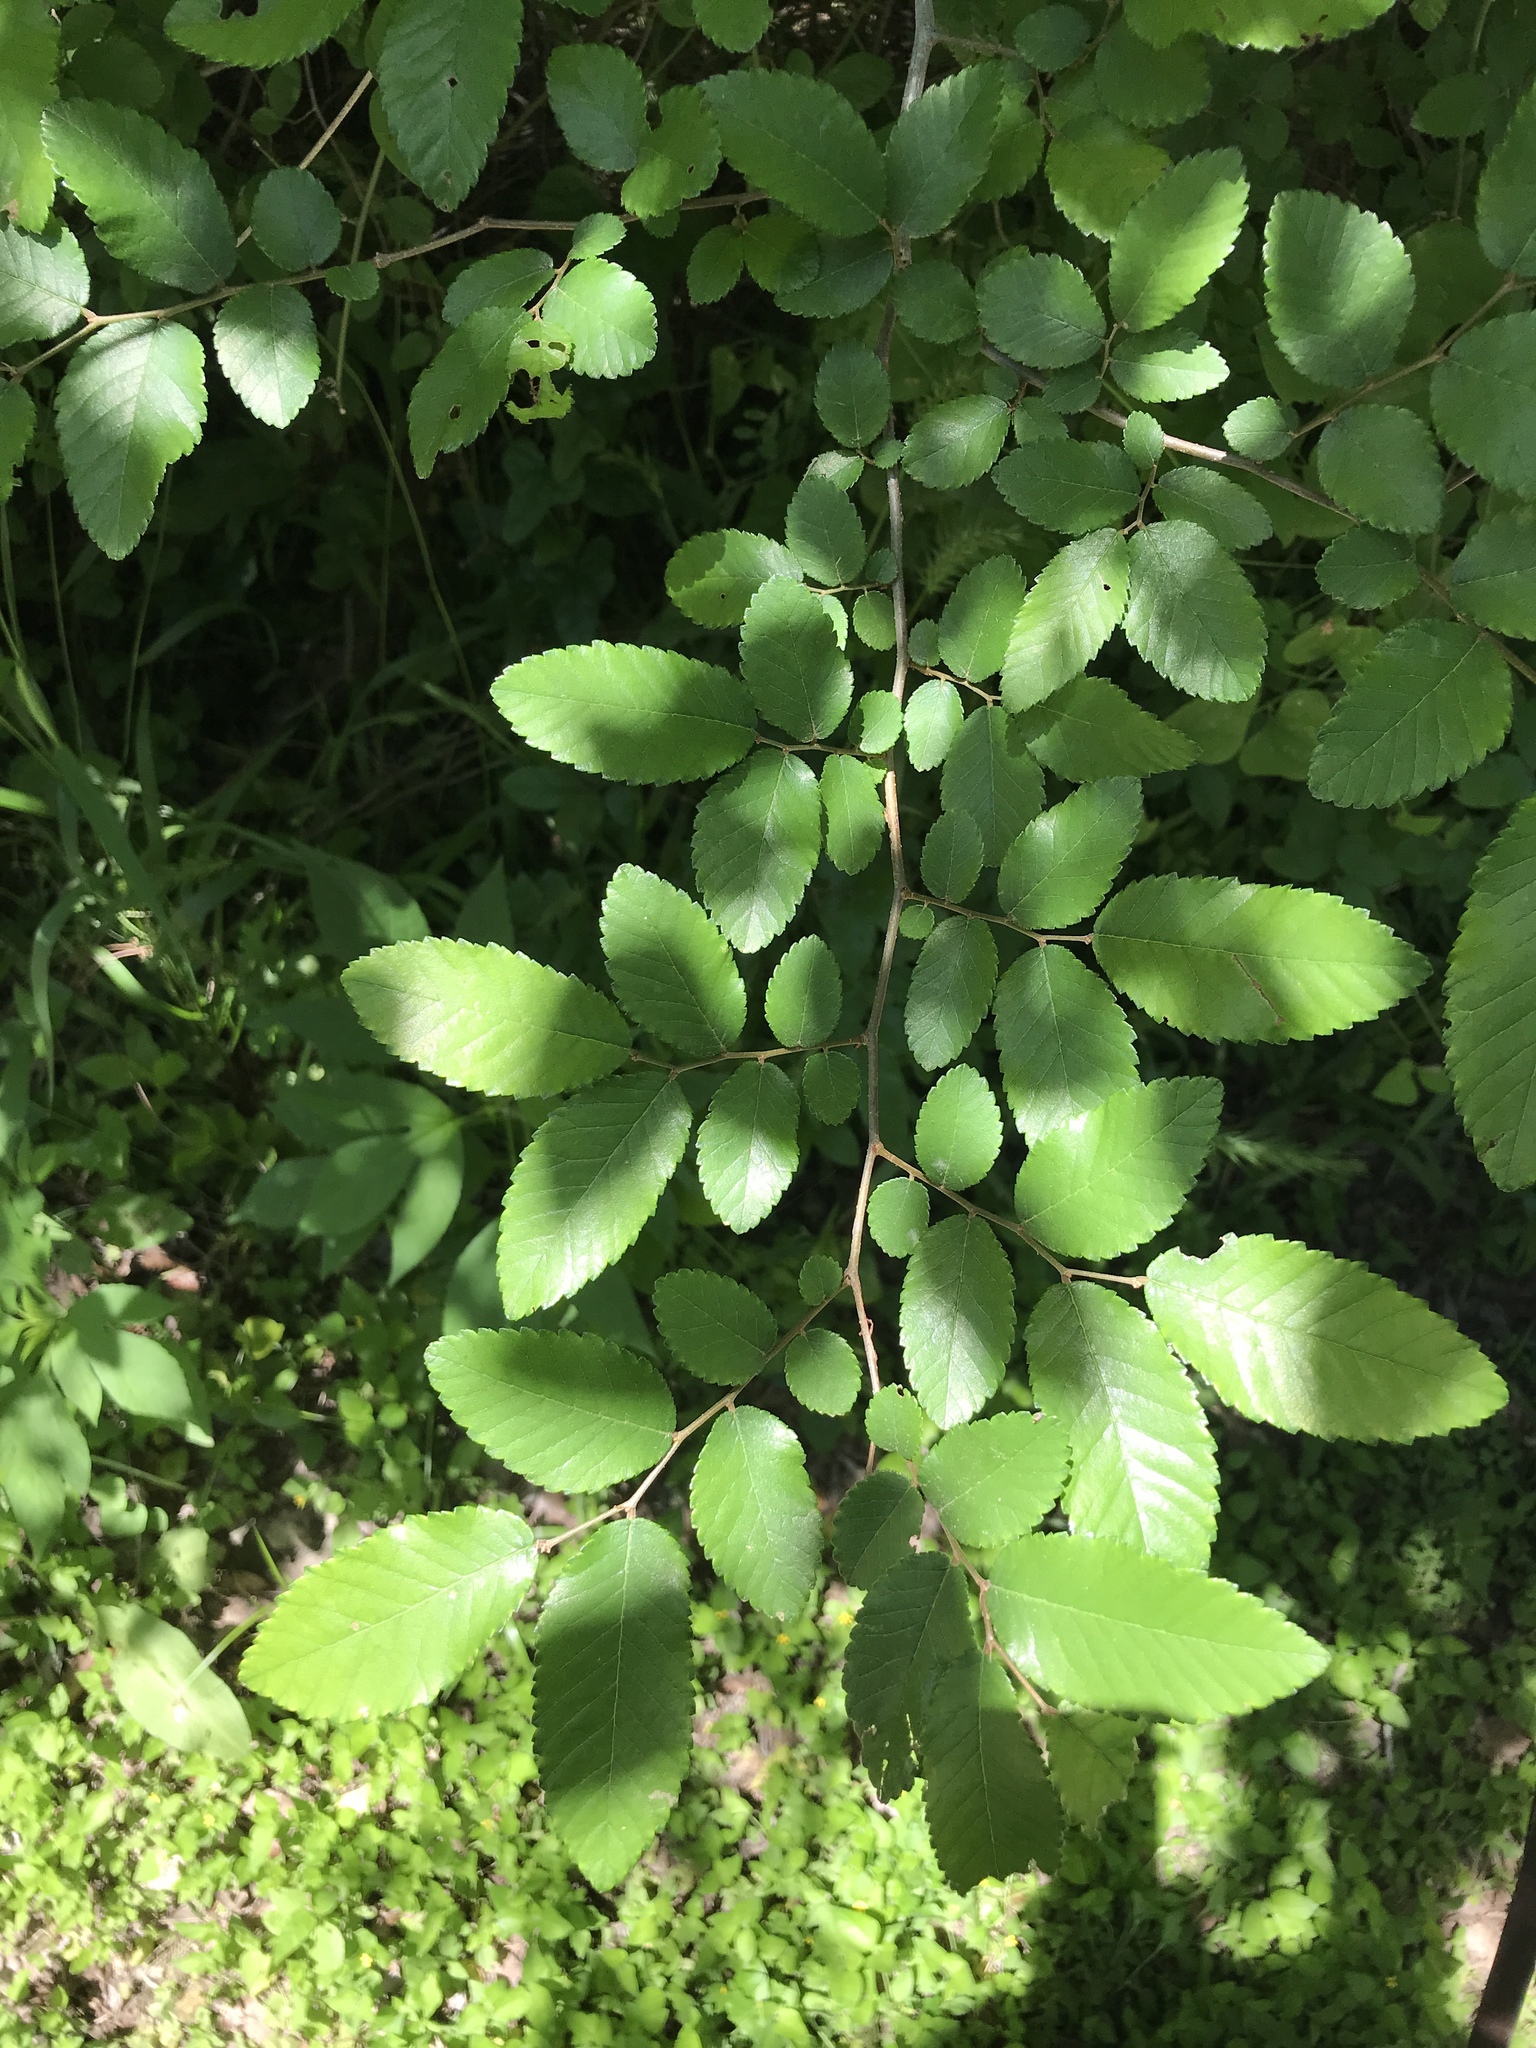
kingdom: Plantae
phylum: Tracheophyta
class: Magnoliopsida
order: Rosales
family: Ulmaceae
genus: Ulmus
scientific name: Ulmus crassifolia
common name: Basket elm
